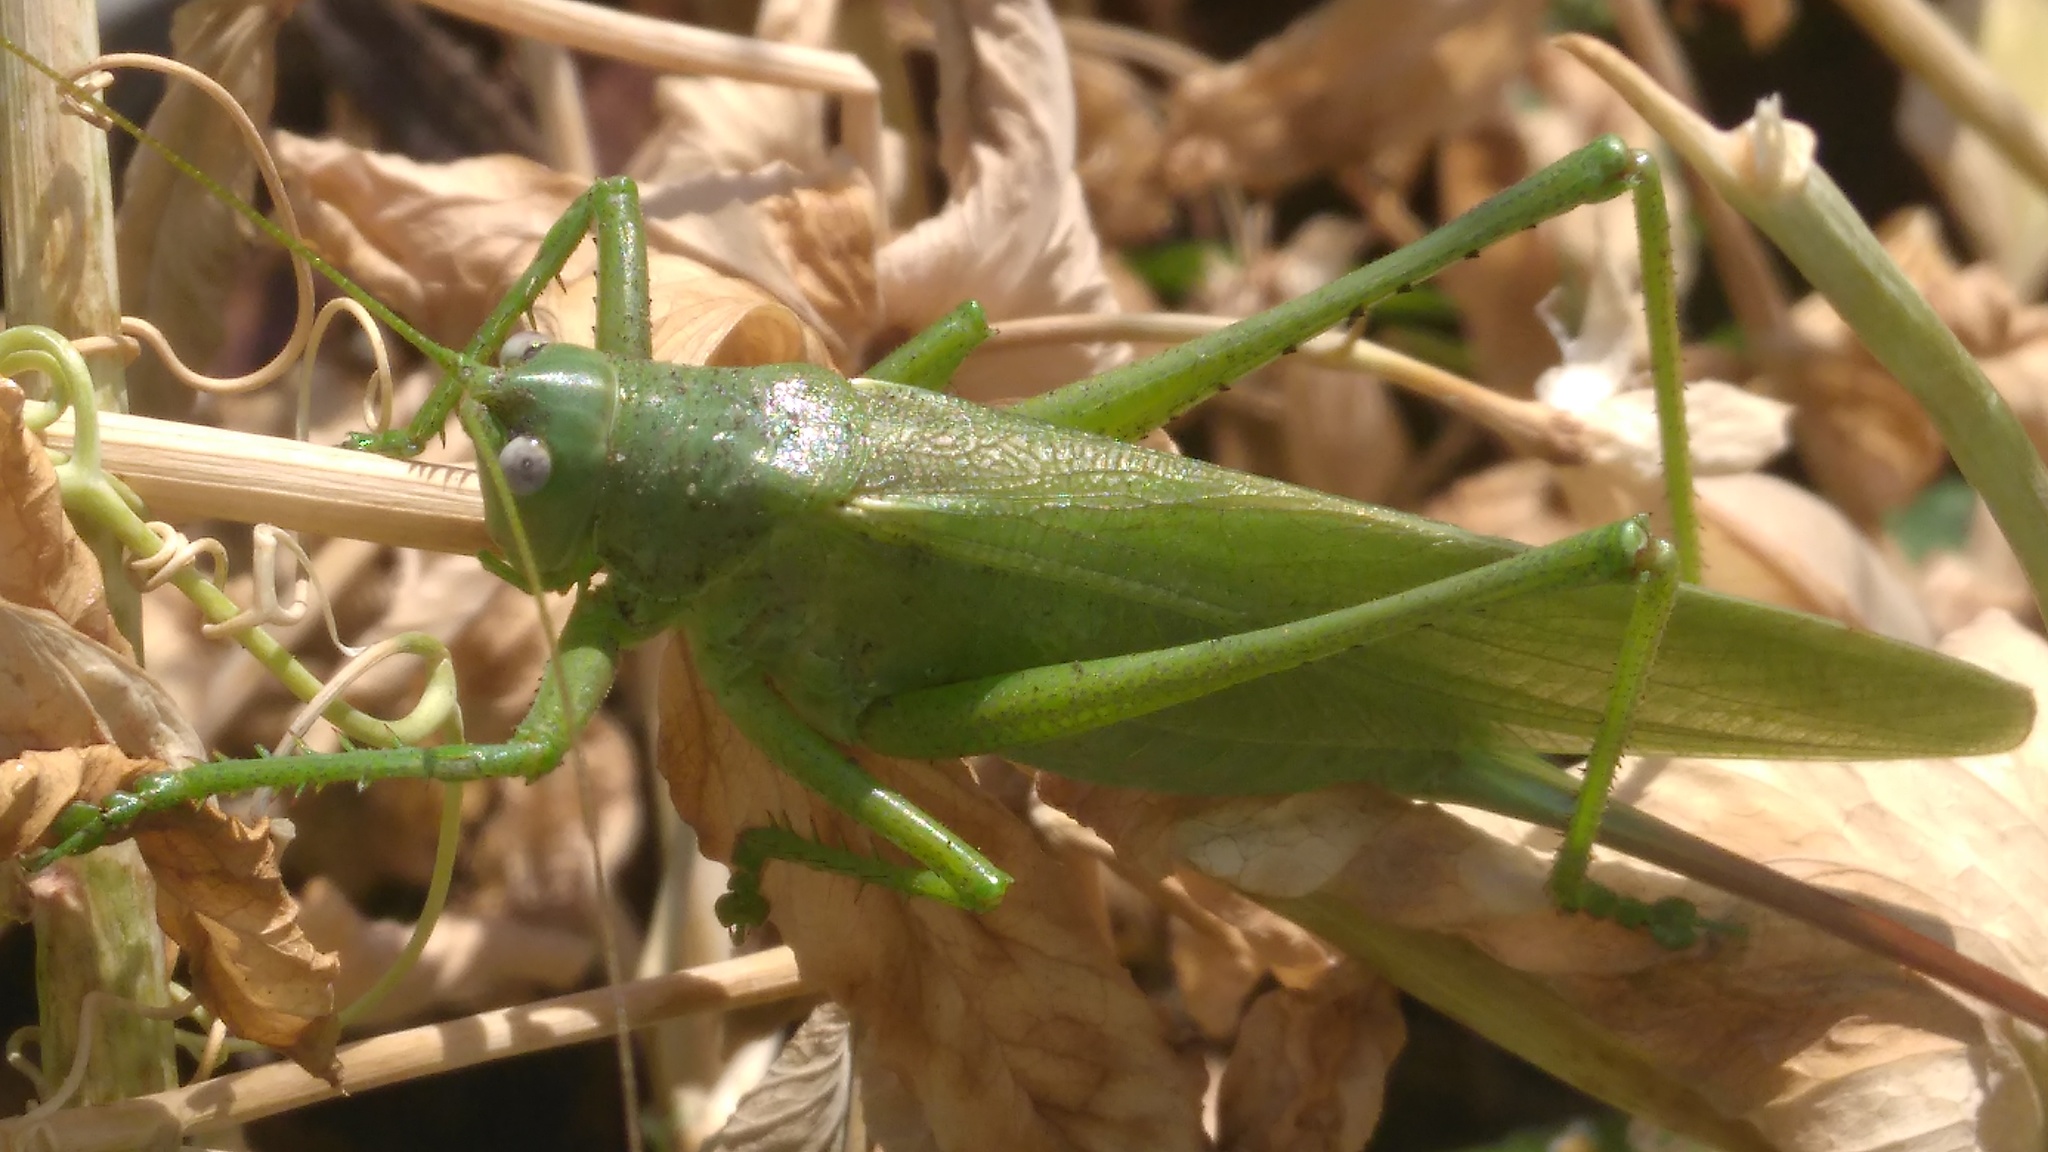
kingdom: Animalia
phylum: Arthropoda
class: Insecta
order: Orthoptera
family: Tettigoniidae
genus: Tettigonia
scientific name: Tettigonia caudata
